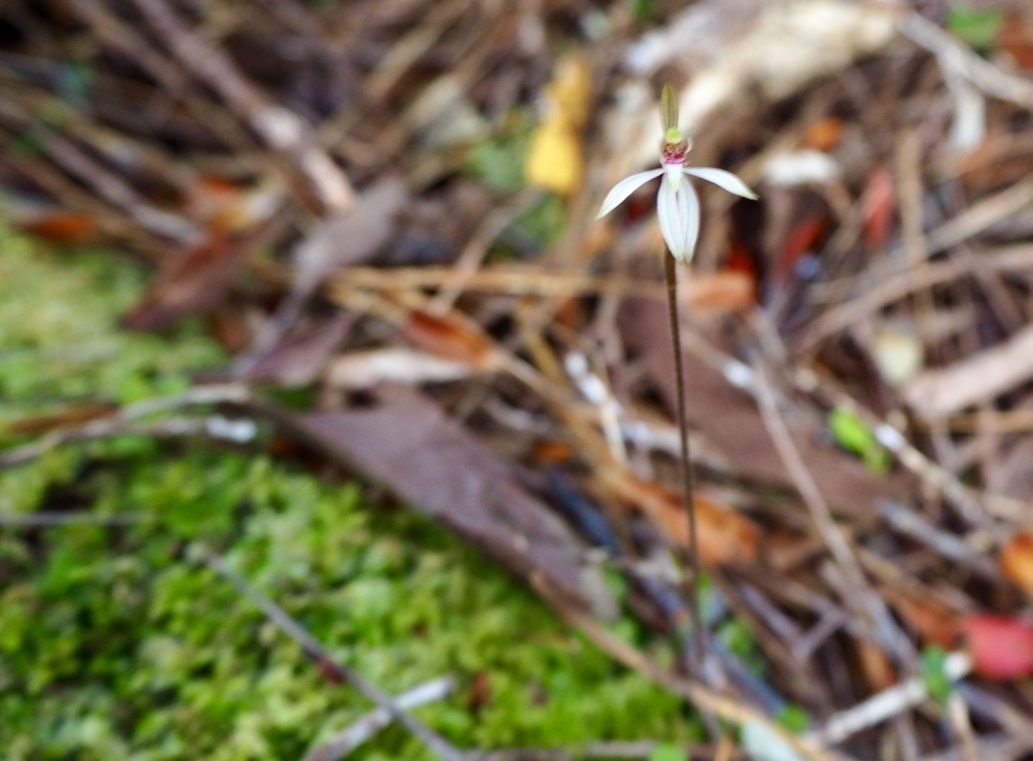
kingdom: Plantae
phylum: Tracheophyta
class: Liliopsida
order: Asparagales
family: Orchidaceae
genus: Caladenia
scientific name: Caladenia chlorostyla
